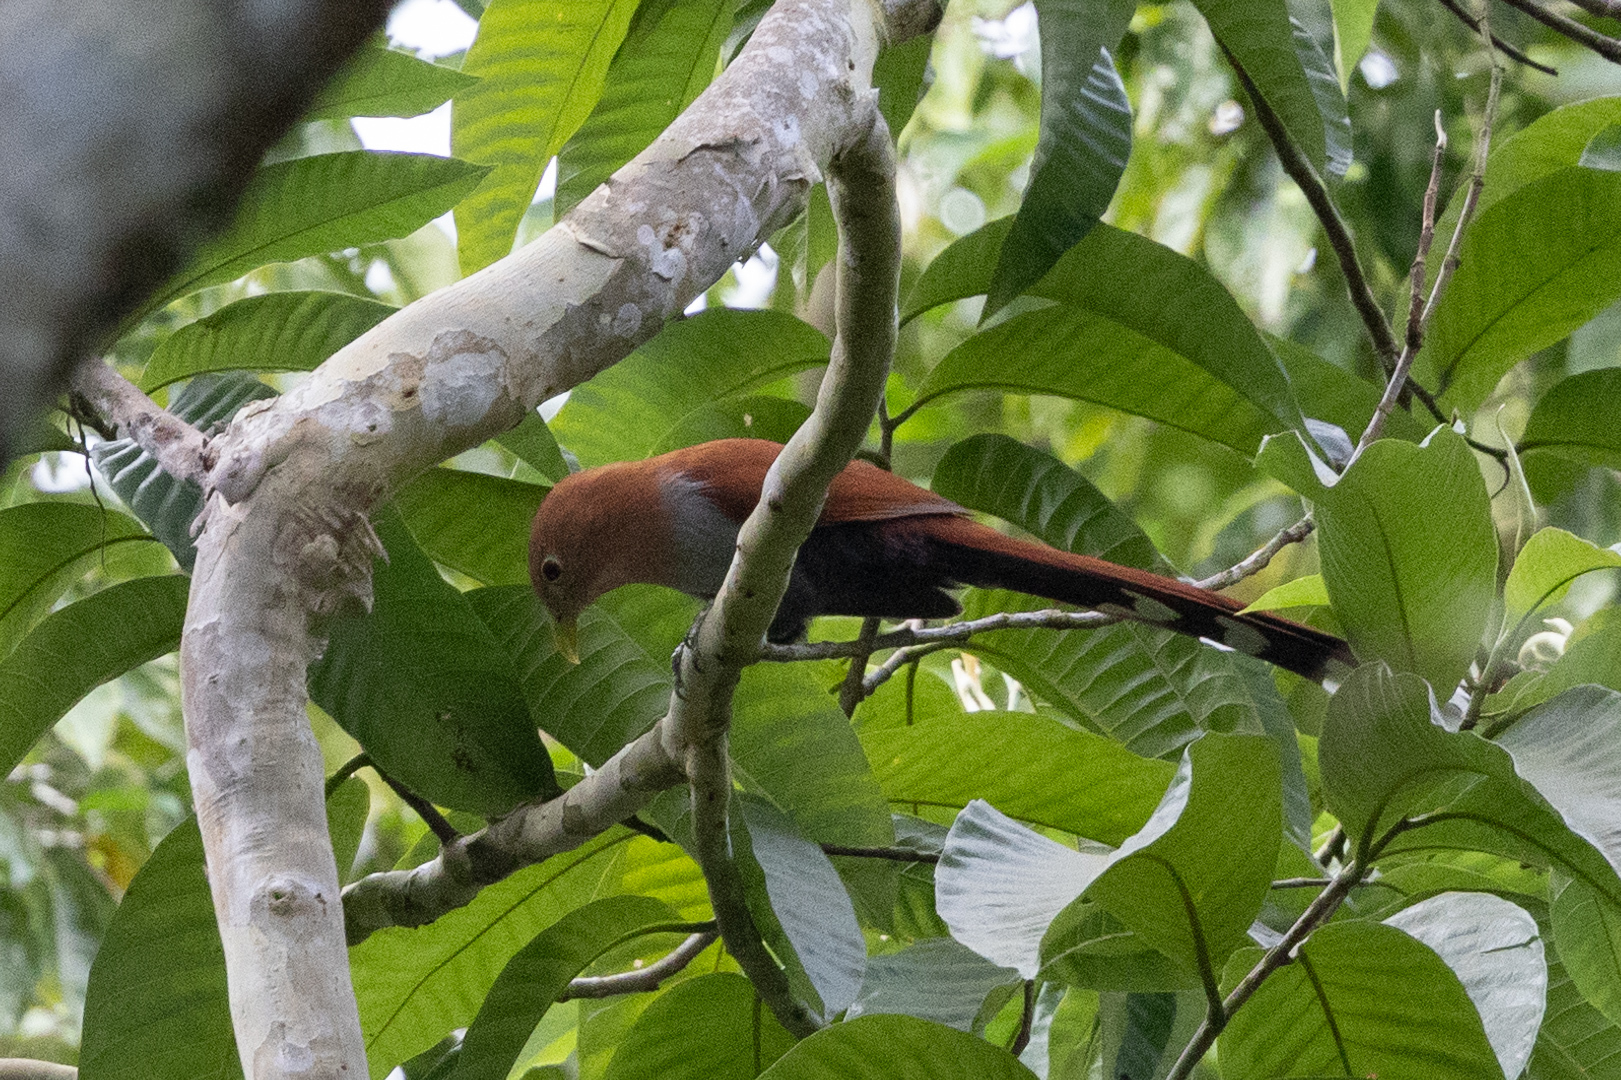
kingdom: Animalia
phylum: Chordata
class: Aves
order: Cuculiformes
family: Cuculidae
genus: Piaya
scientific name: Piaya cayana
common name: Squirrel cuckoo
